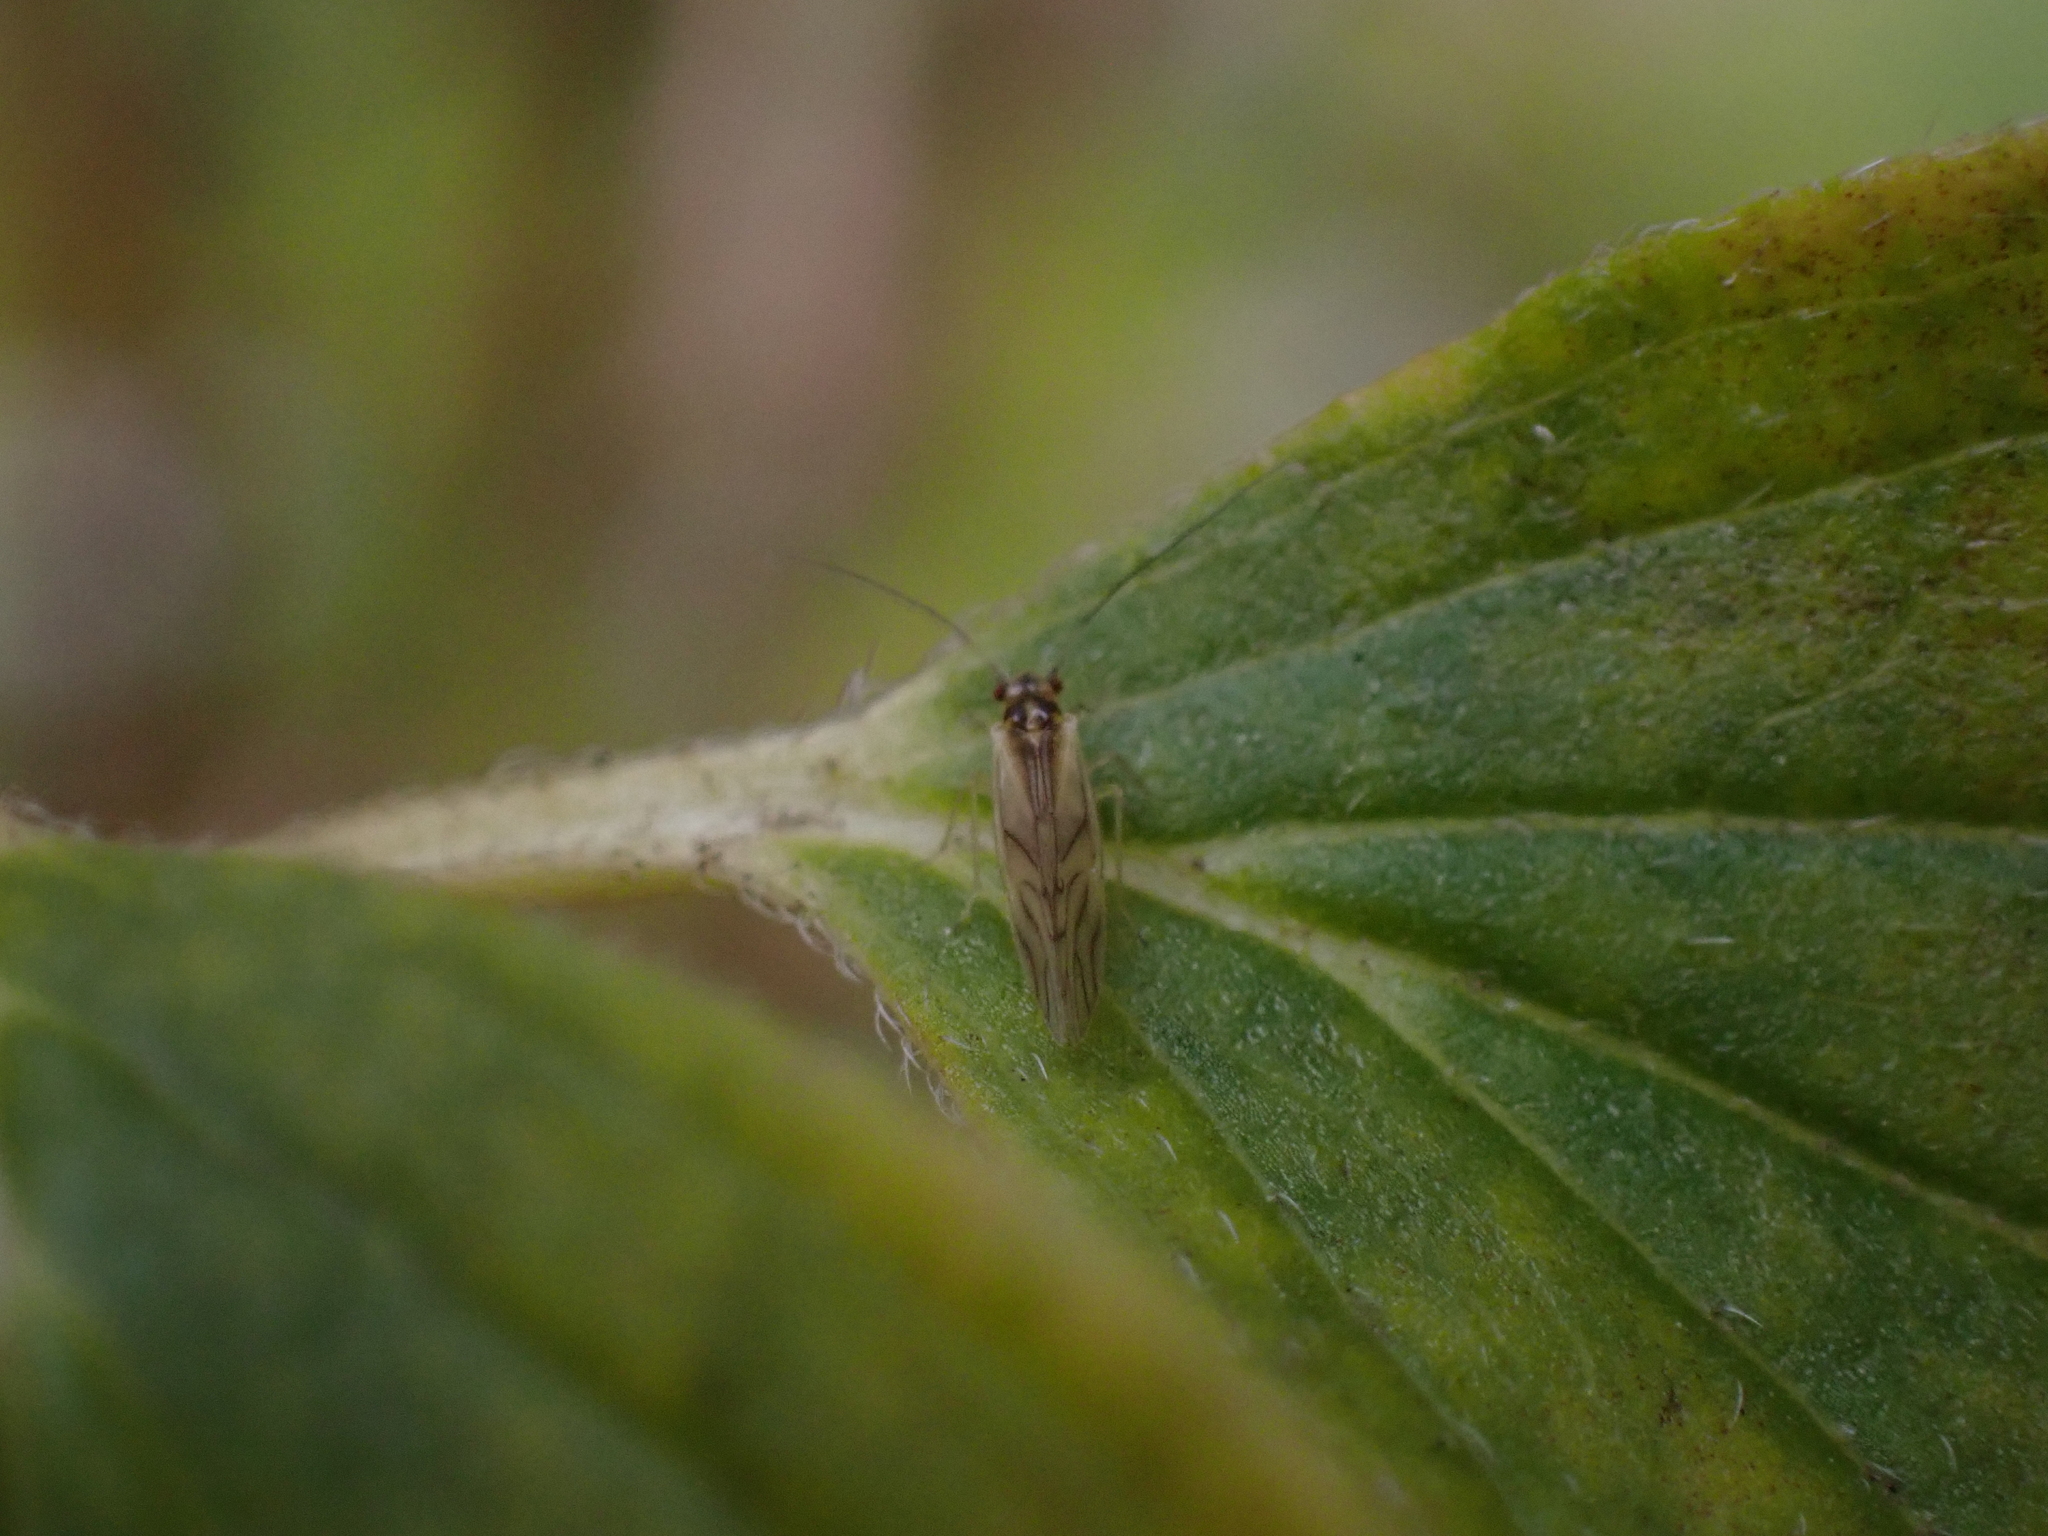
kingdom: Animalia
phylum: Arthropoda
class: Insecta
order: Psocodea
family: Caeciliusidae
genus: Valenzuela
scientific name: Valenzuela flavidus
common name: Yellow barklouse
